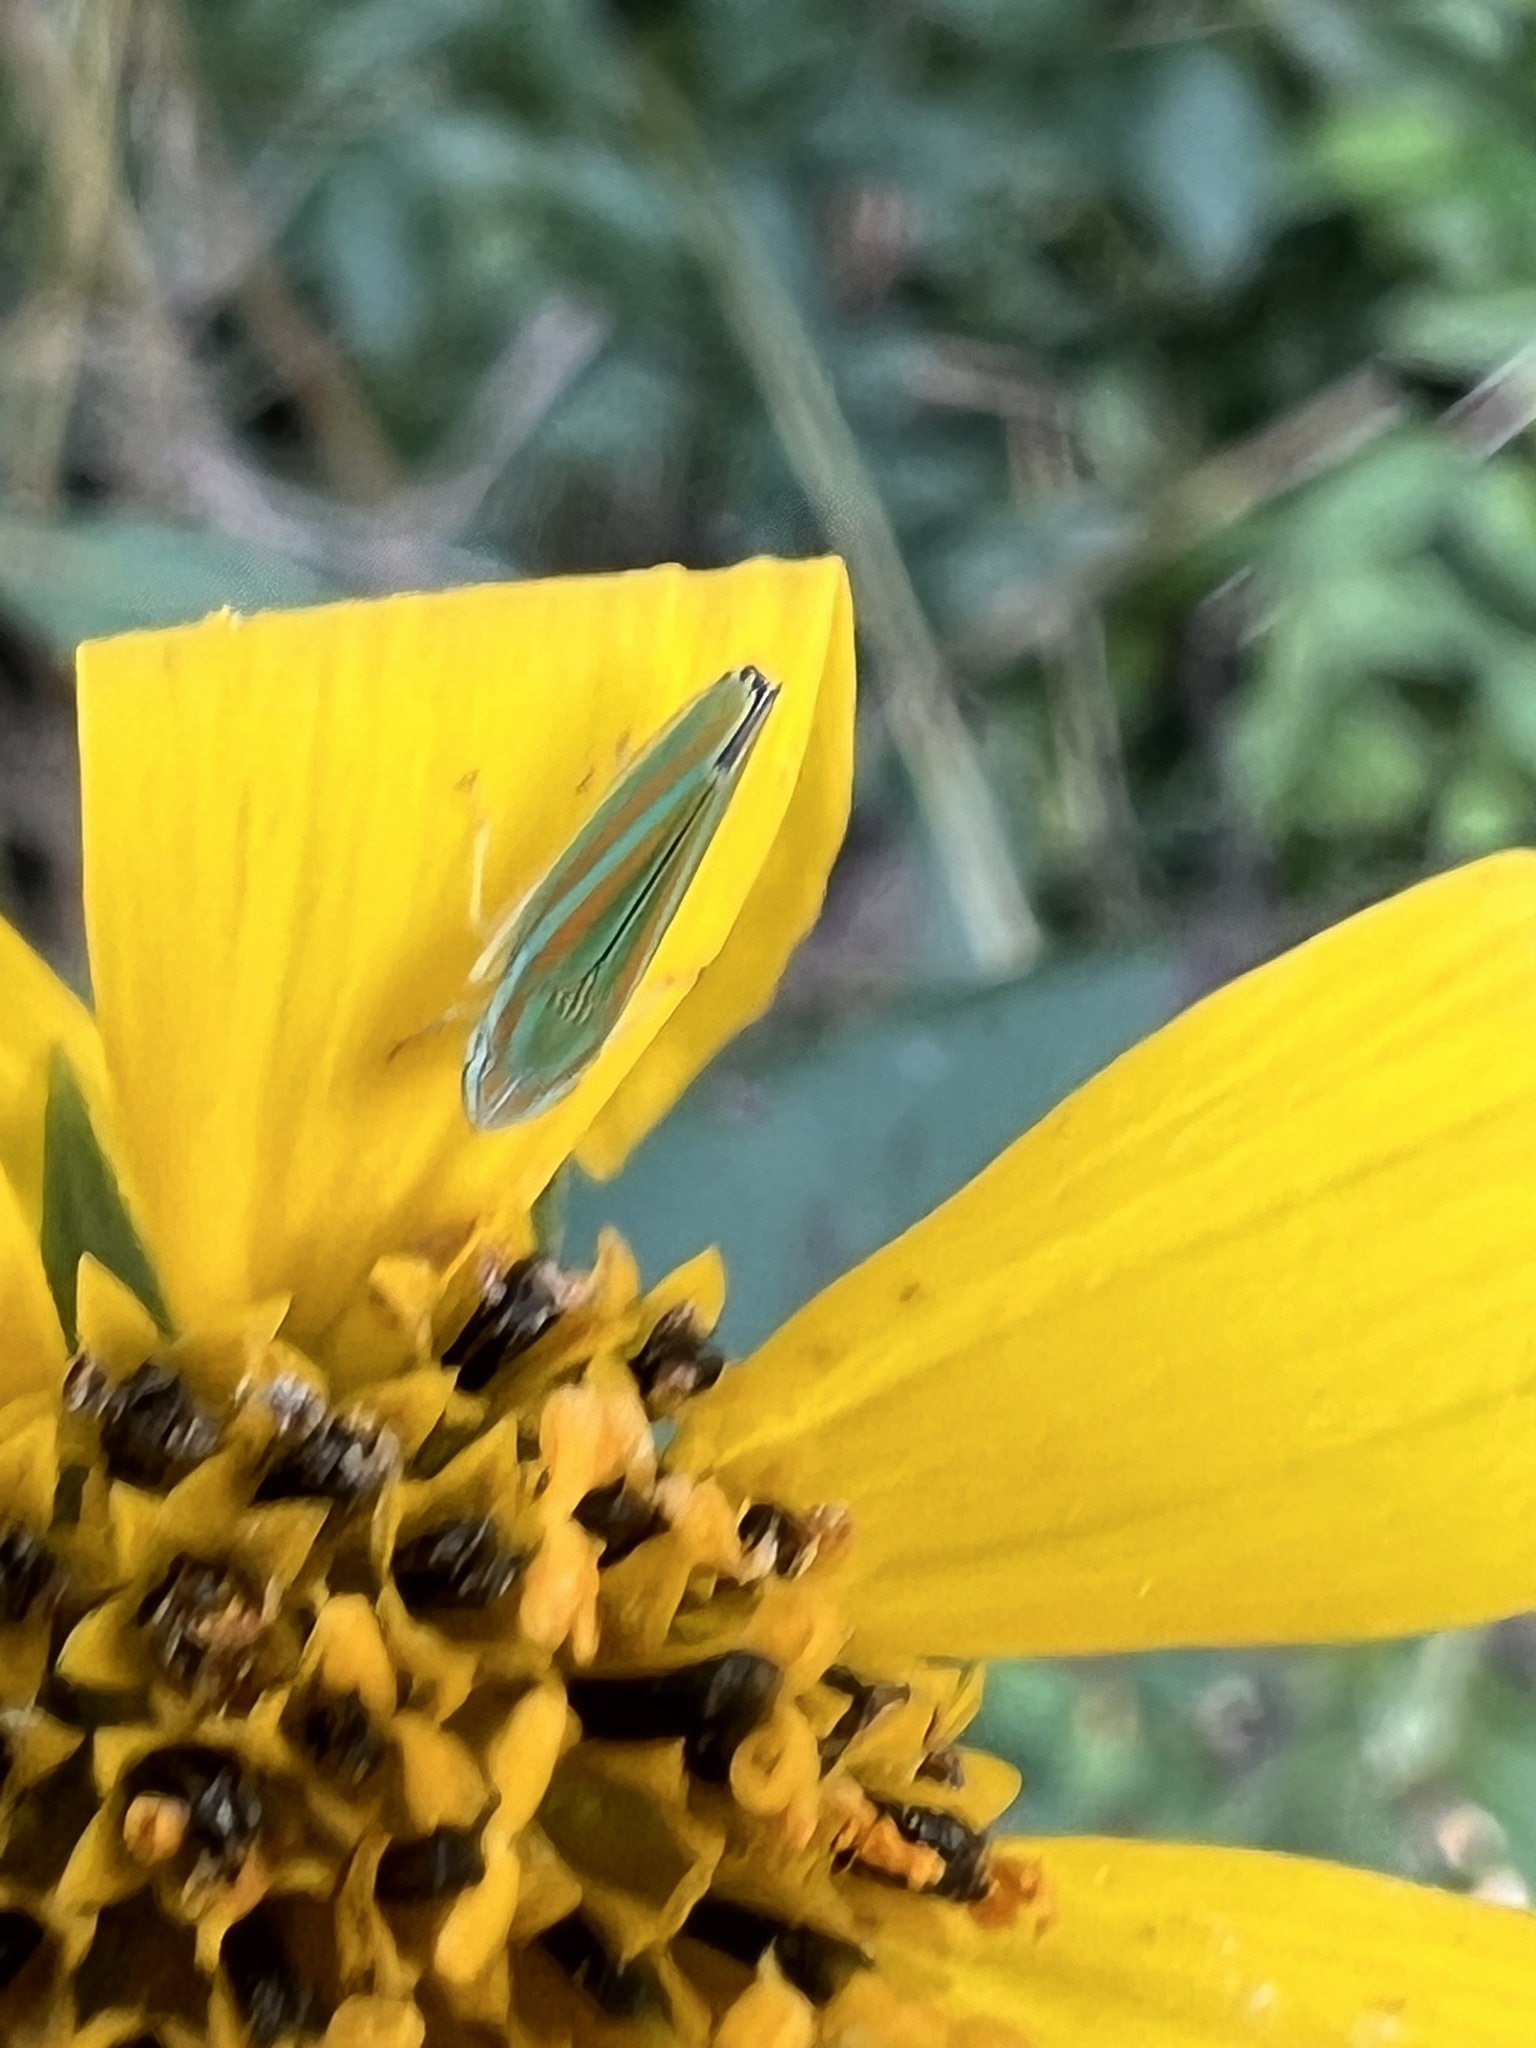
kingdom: Animalia
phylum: Arthropoda
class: Insecta
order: Hemiptera
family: Cicadellidae
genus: Graphocephala
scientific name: Graphocephala versuta
